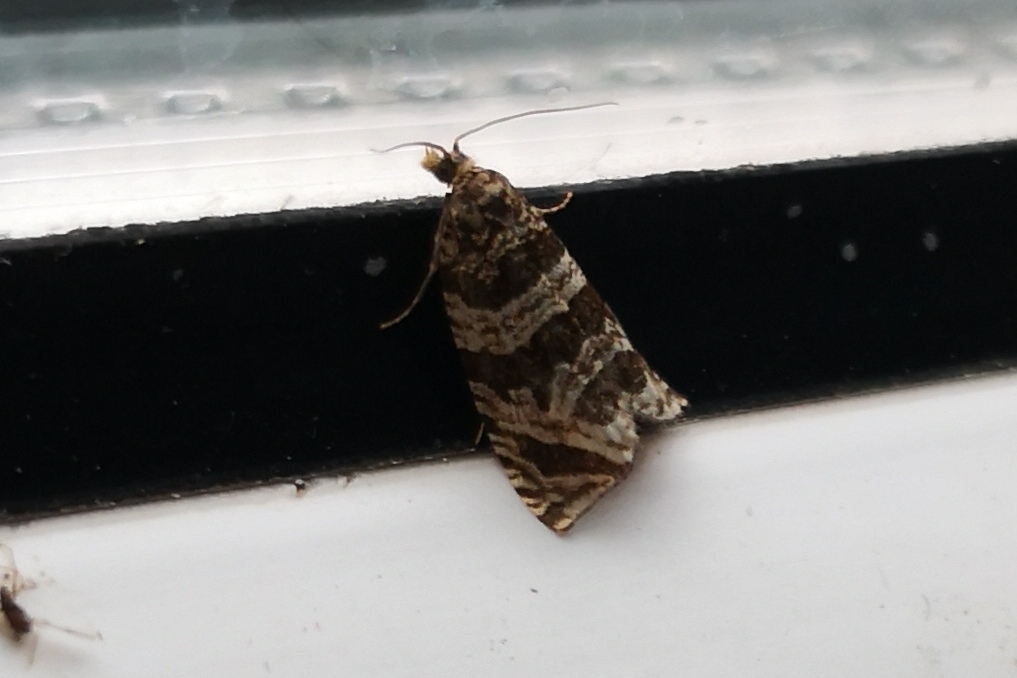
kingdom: Animalia
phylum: Arthropoda
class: Insecta
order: Lepidoptera
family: Tortricidae
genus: Syricoris
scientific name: Syricoris rivulana
